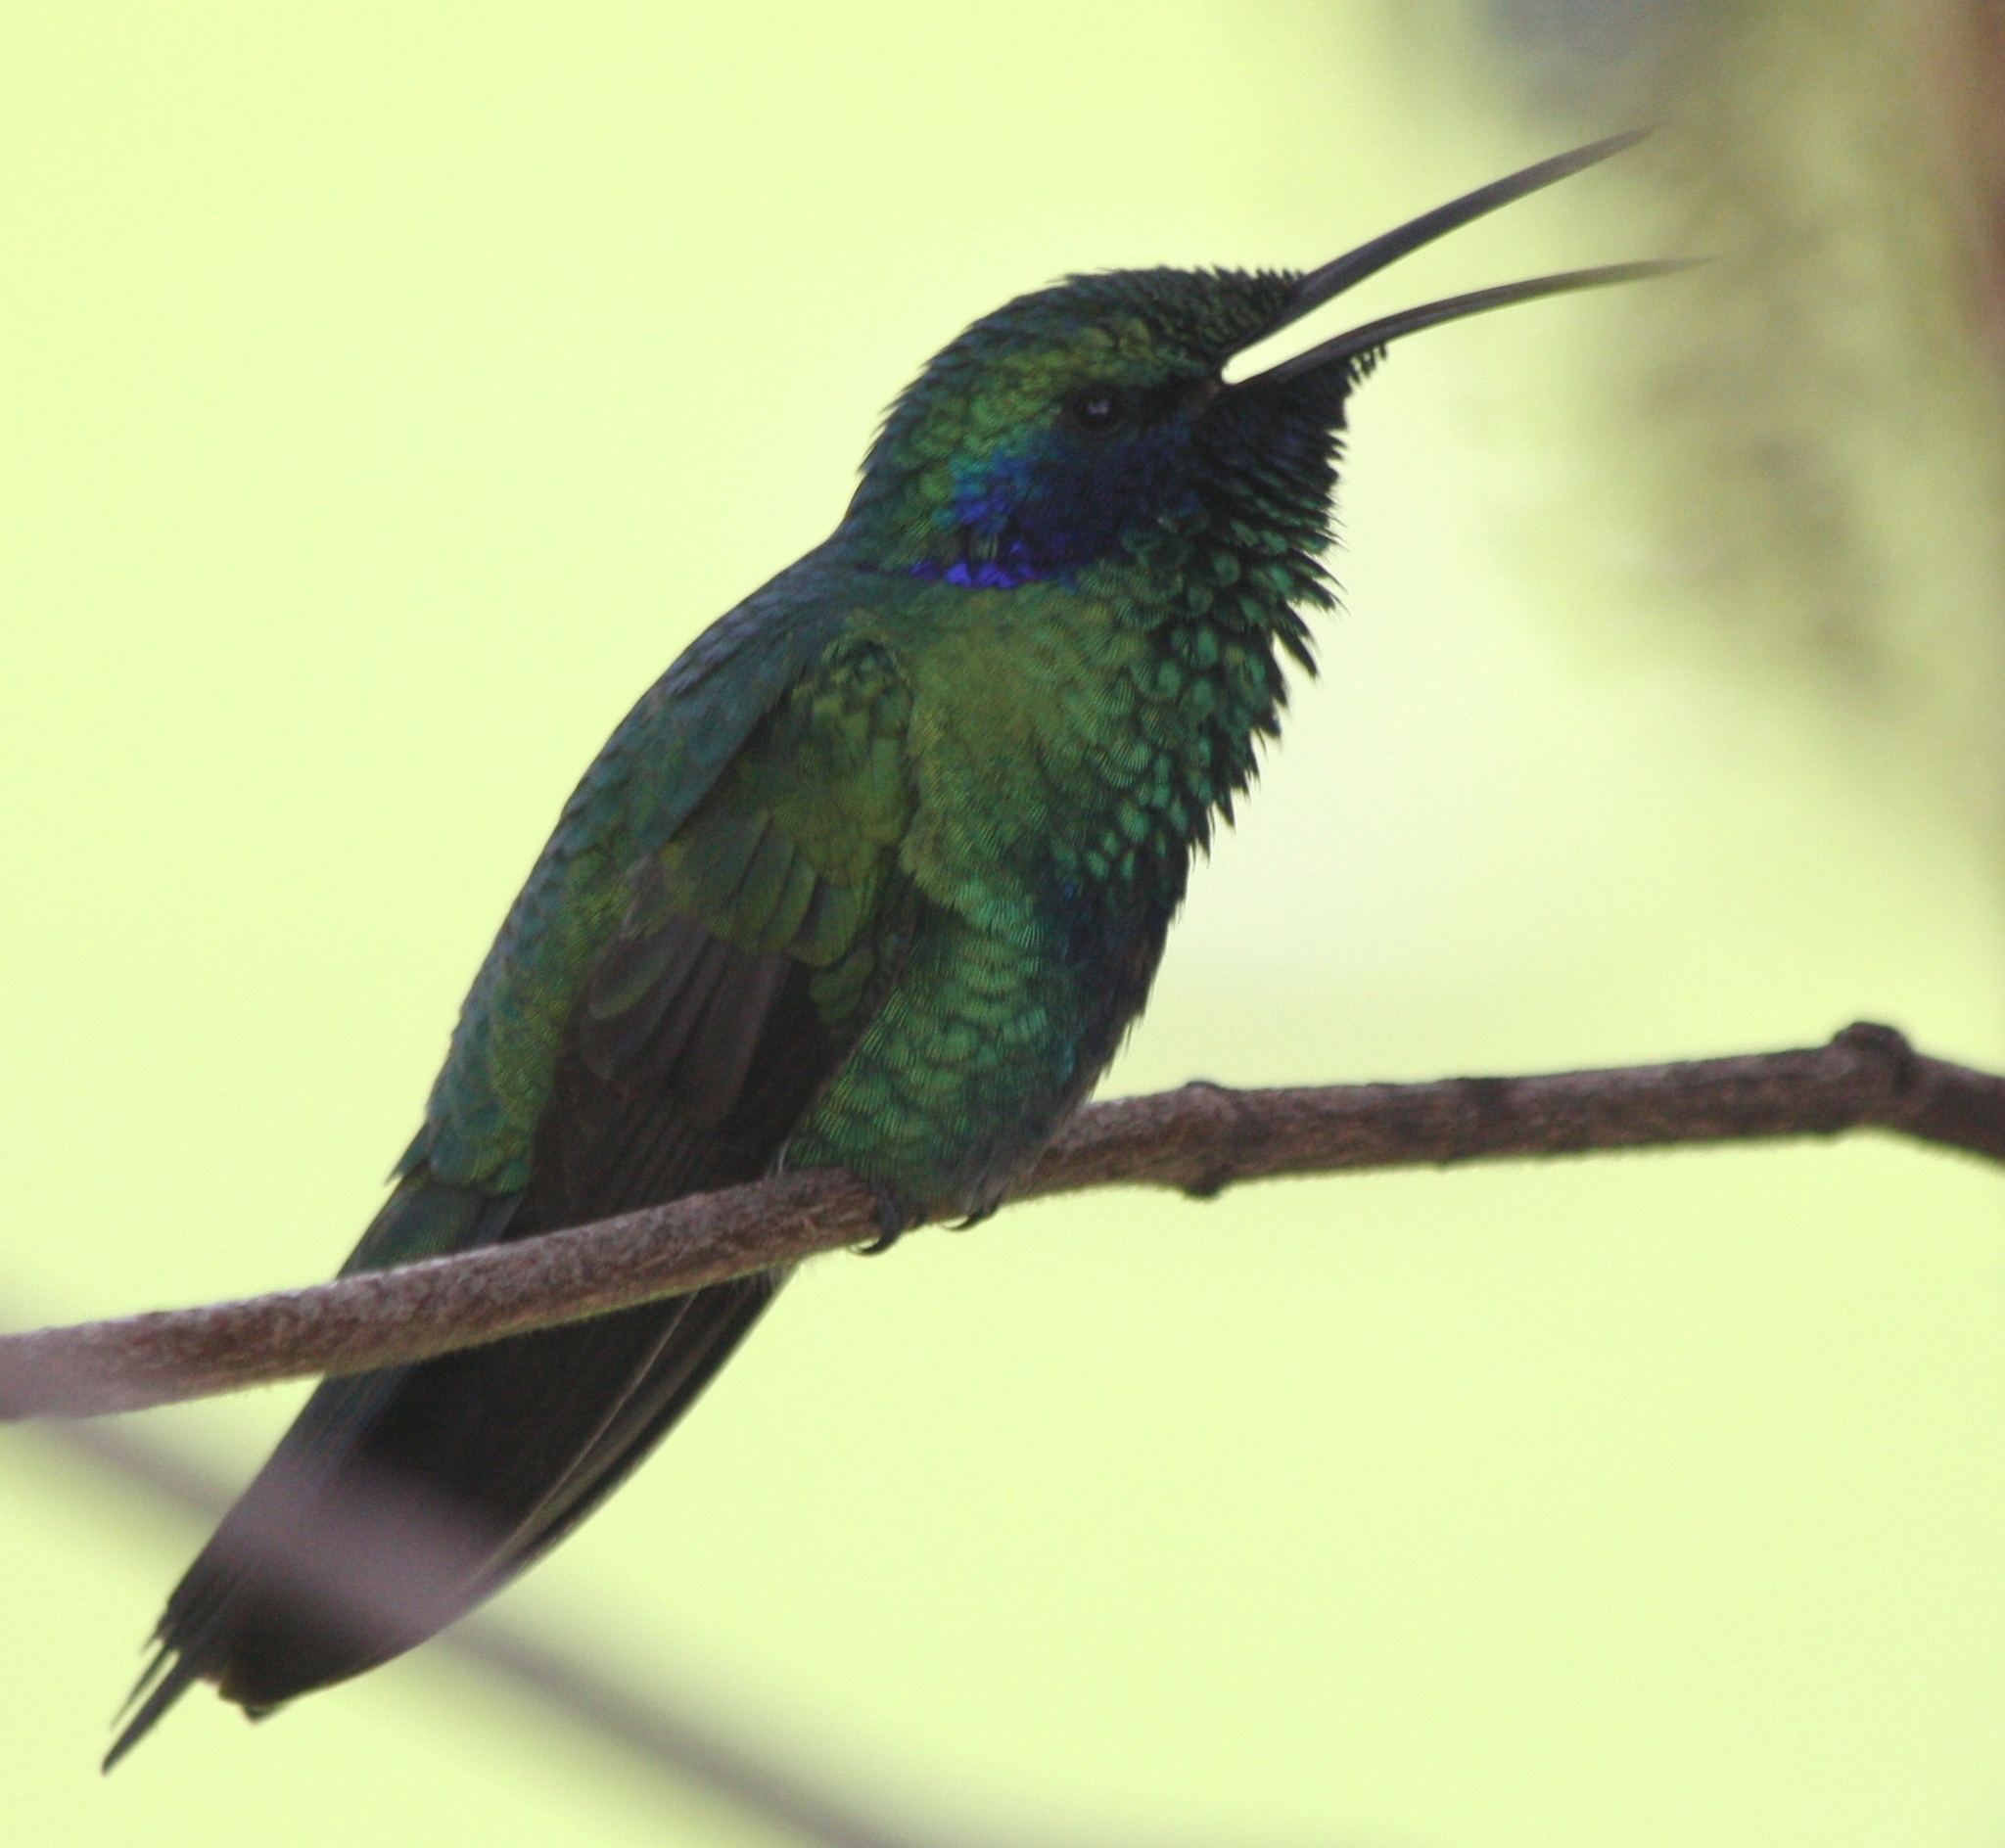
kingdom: Animalia
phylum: Chordata
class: Aves
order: Apodiformes
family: Trochilidae
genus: Colibri
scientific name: Colibri coruscans
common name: Sparkling violetear
